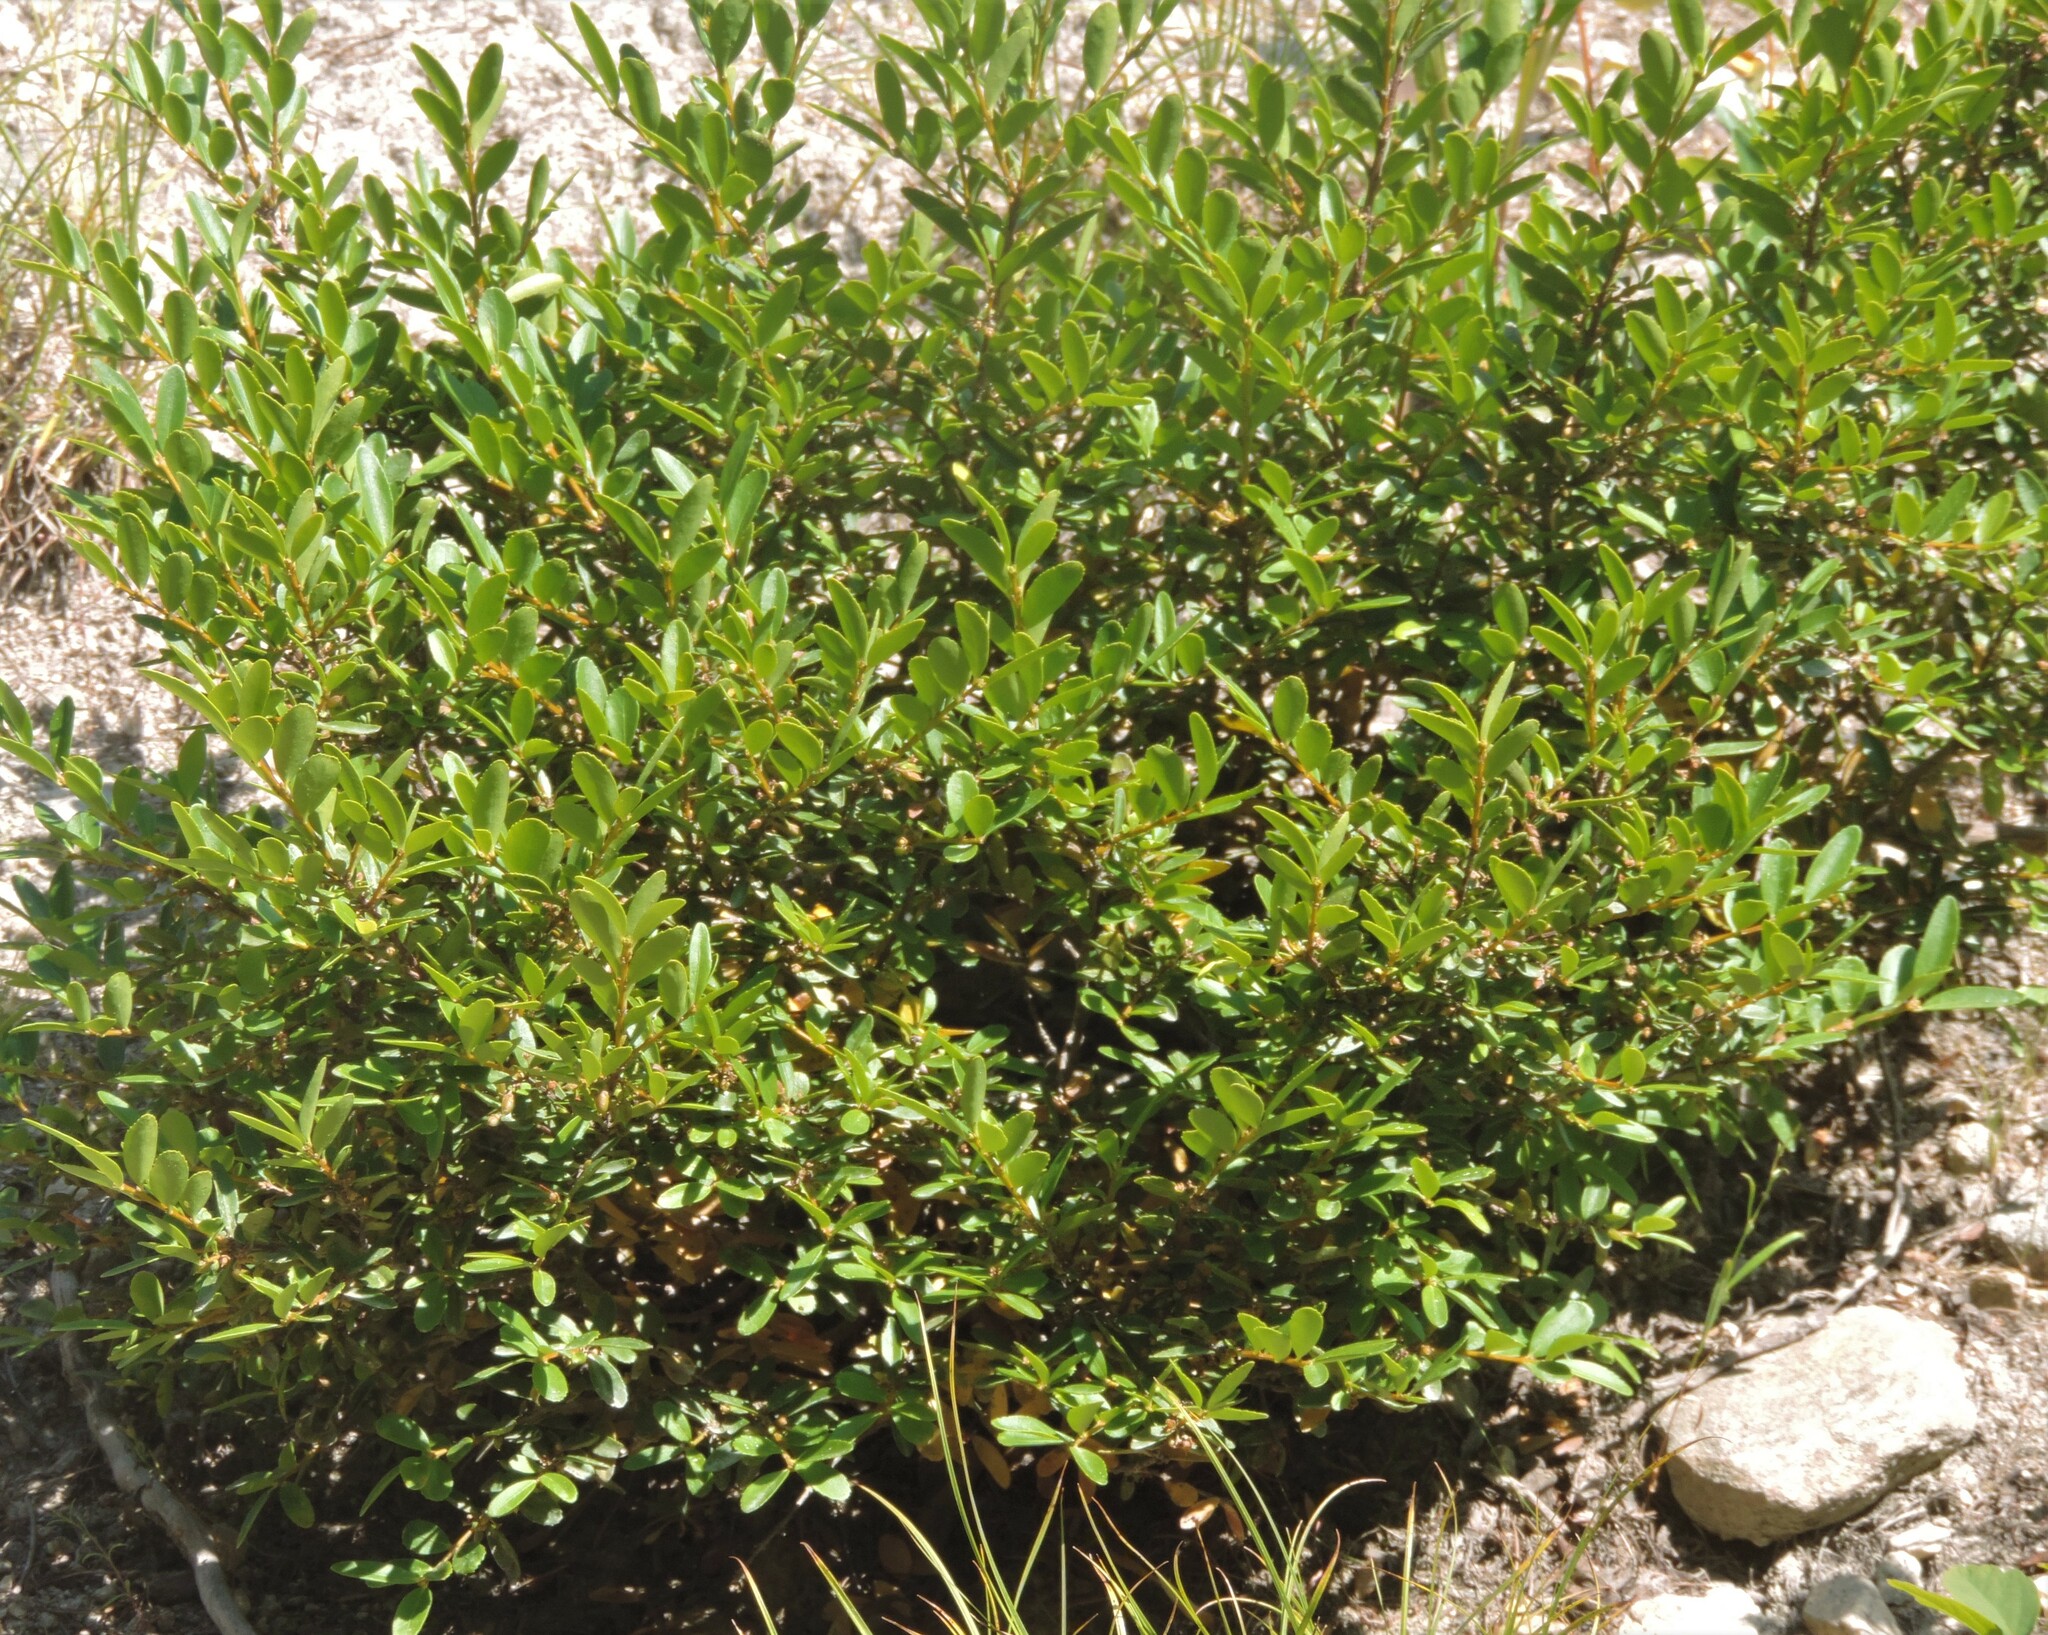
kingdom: Plantae
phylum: Tracheophyta
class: Magnoliopsida
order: Celastrales
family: Celastraceae
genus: Paxistima
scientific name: Paxistima myrsinites
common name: Mountain-lover
